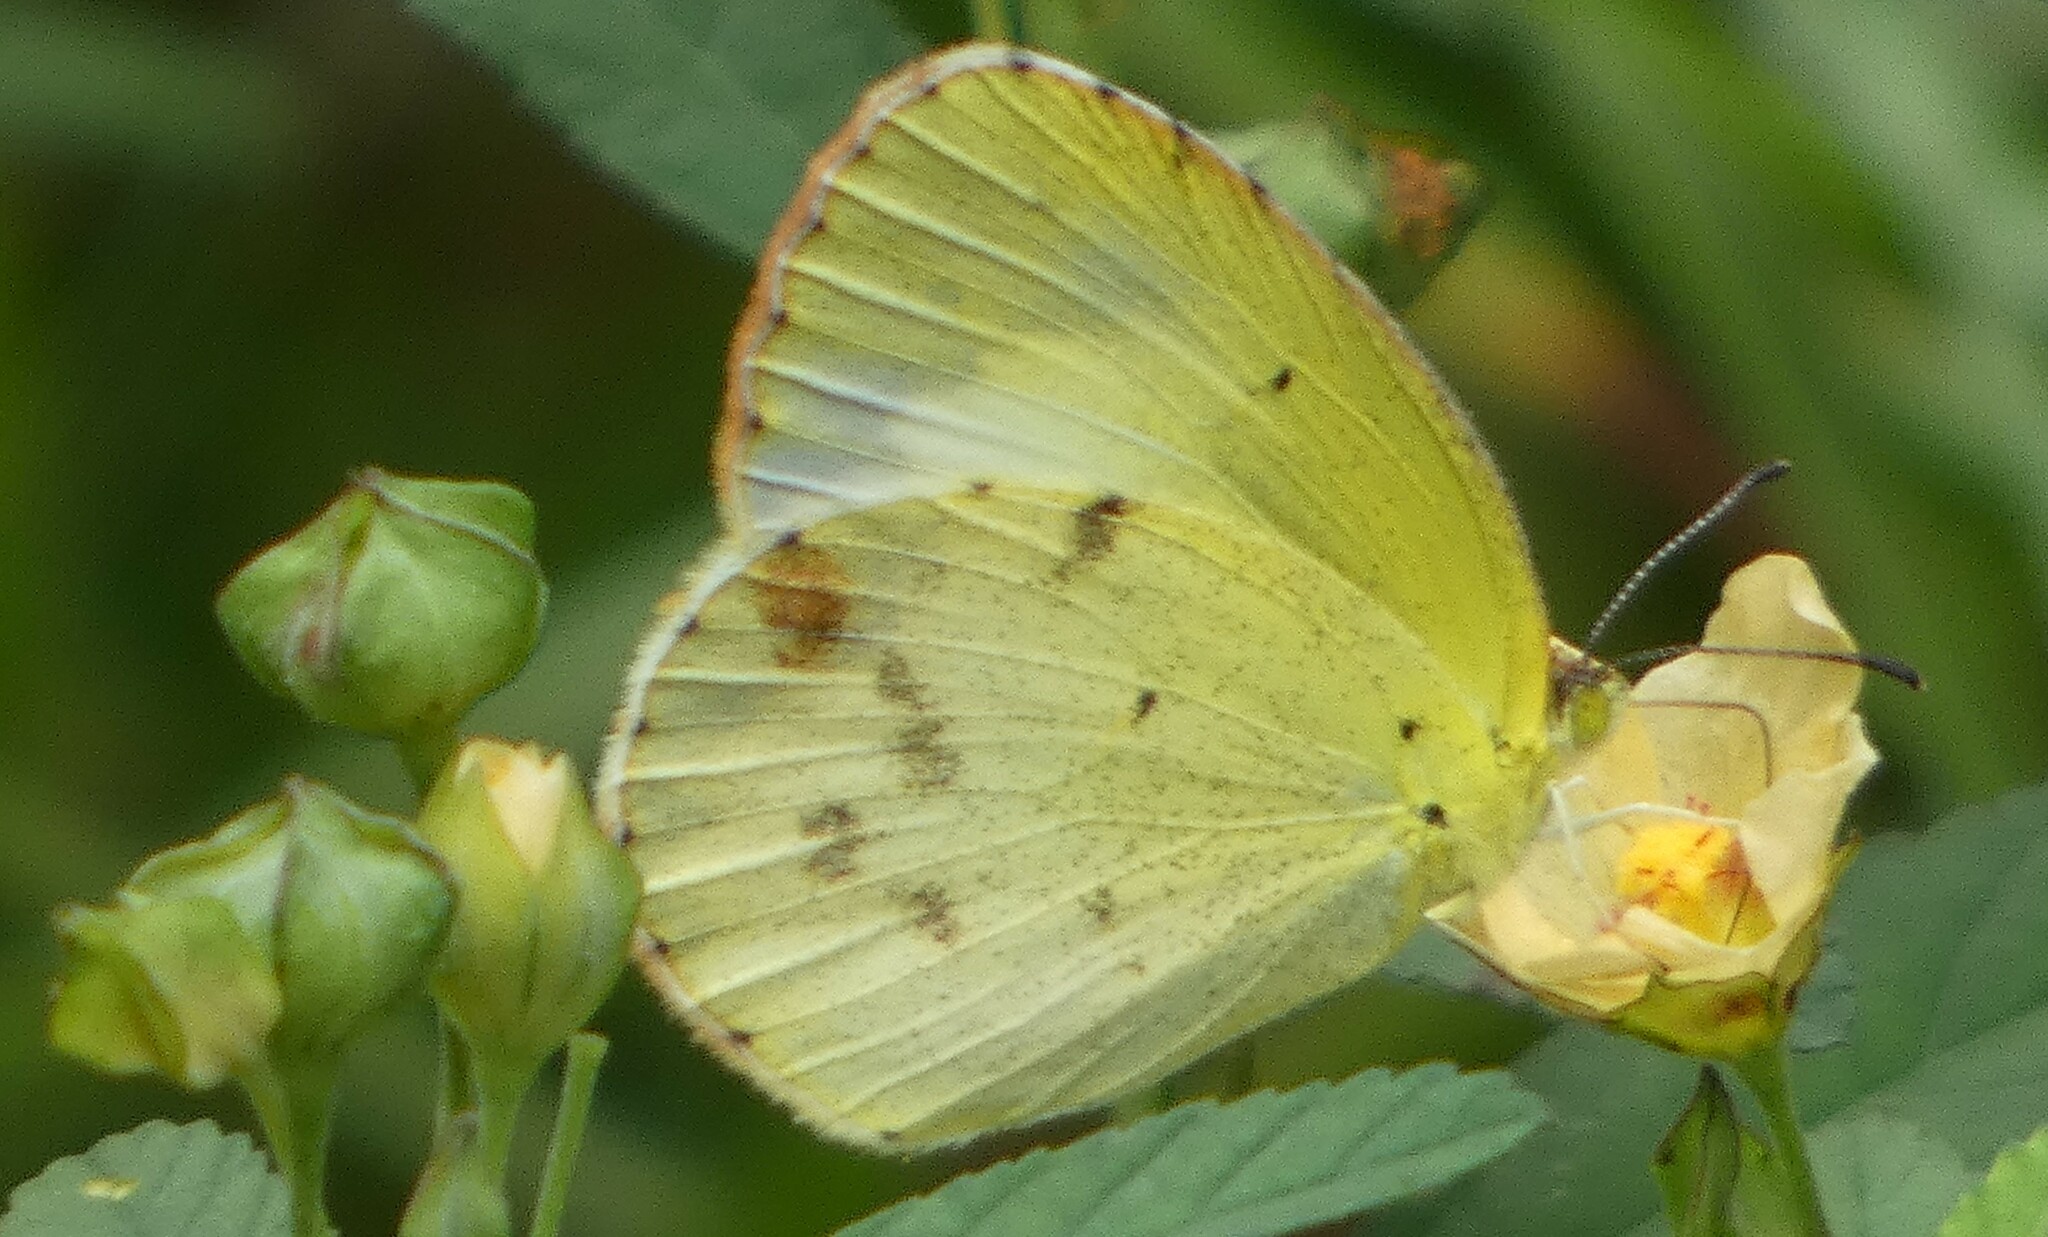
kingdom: Animalia
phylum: Arthropoda
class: Insecta
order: Lepidoptera
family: Pieridae
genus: Pyrisitia
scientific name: Pyrisitia lisa
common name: Little yellow
